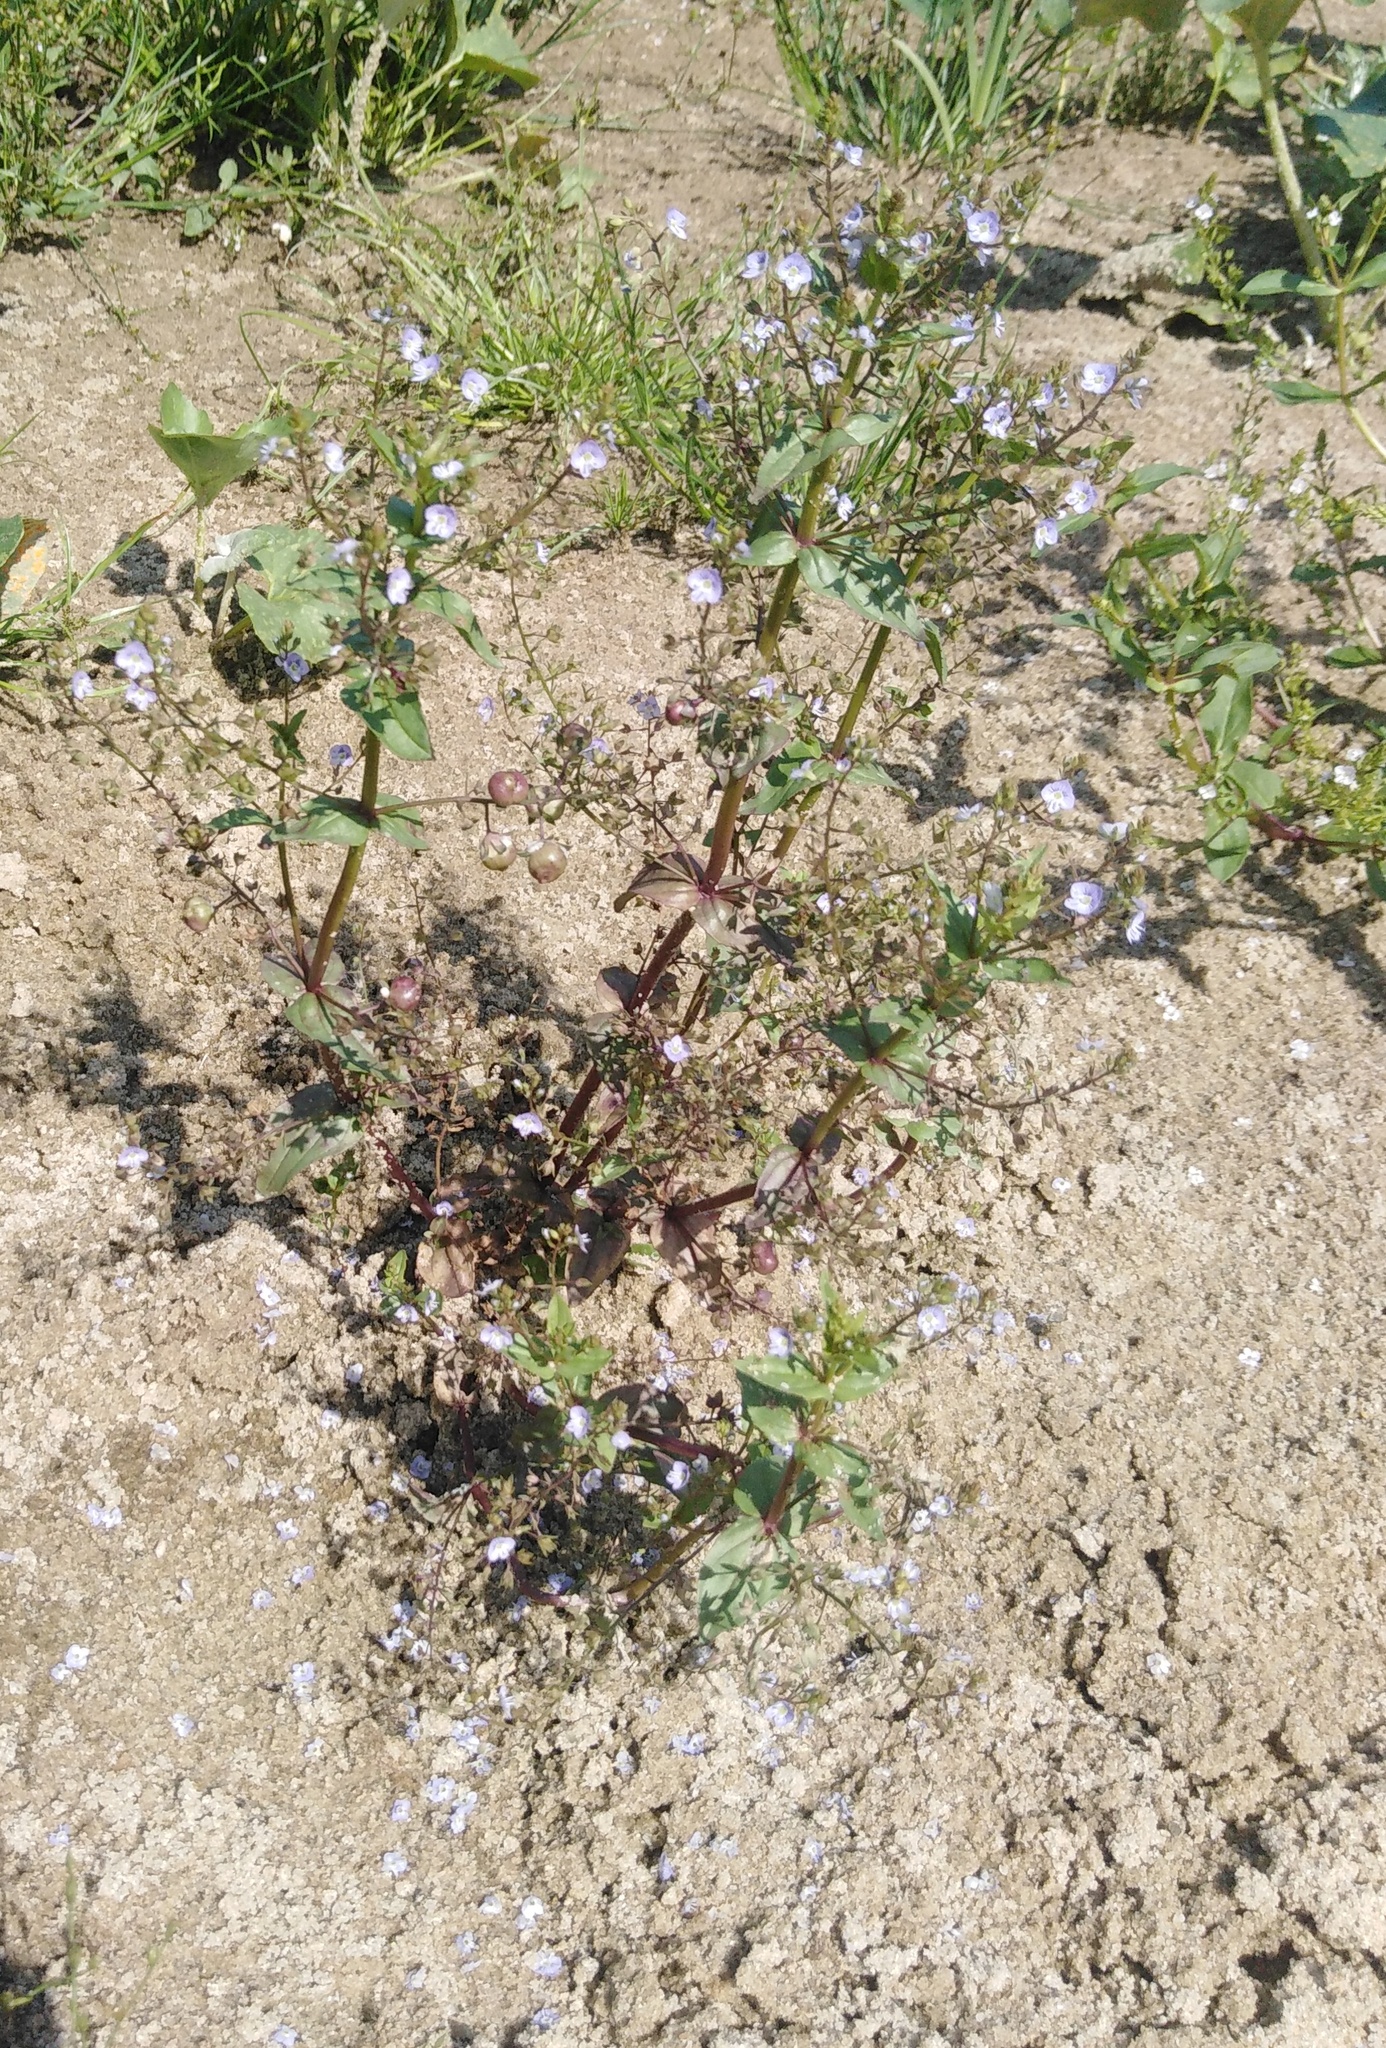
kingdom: Plantae
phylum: Tracheophyta
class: Magnoliopsida
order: Lamiales
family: Plantaginaceae
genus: Veronica
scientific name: Veronica anagallis-aquatica
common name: Water speedwell
